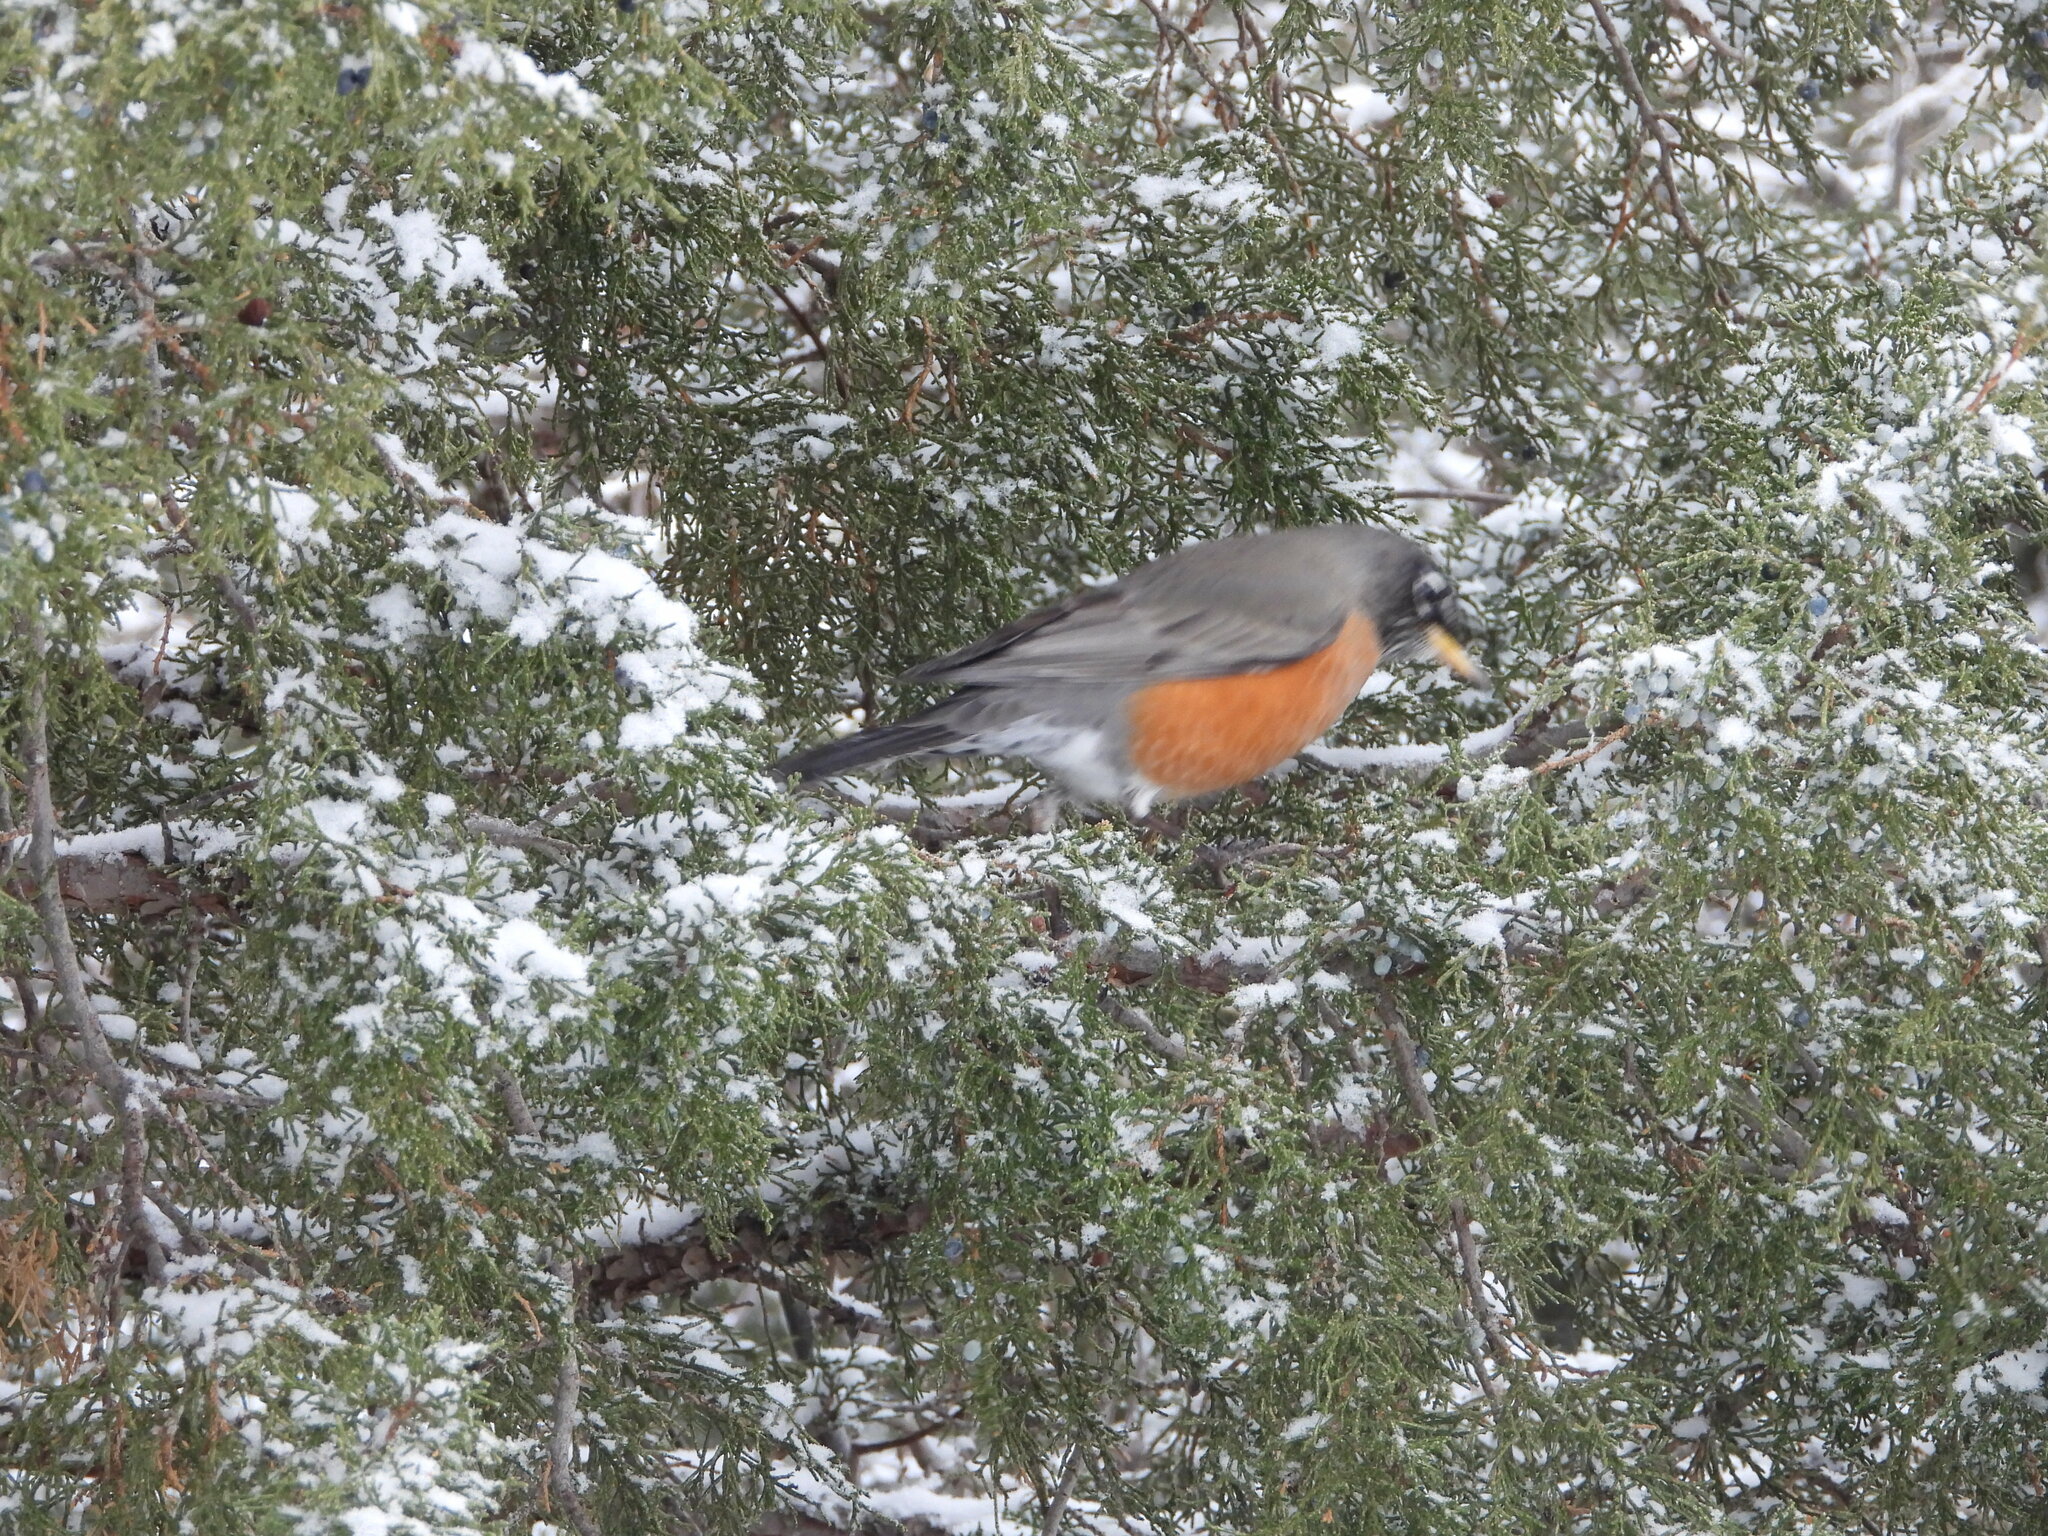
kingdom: Animalia
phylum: Chordata
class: Aves
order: Passeriformes
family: Turdidae
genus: Turdus
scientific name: Turdus migratorius
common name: American robin
